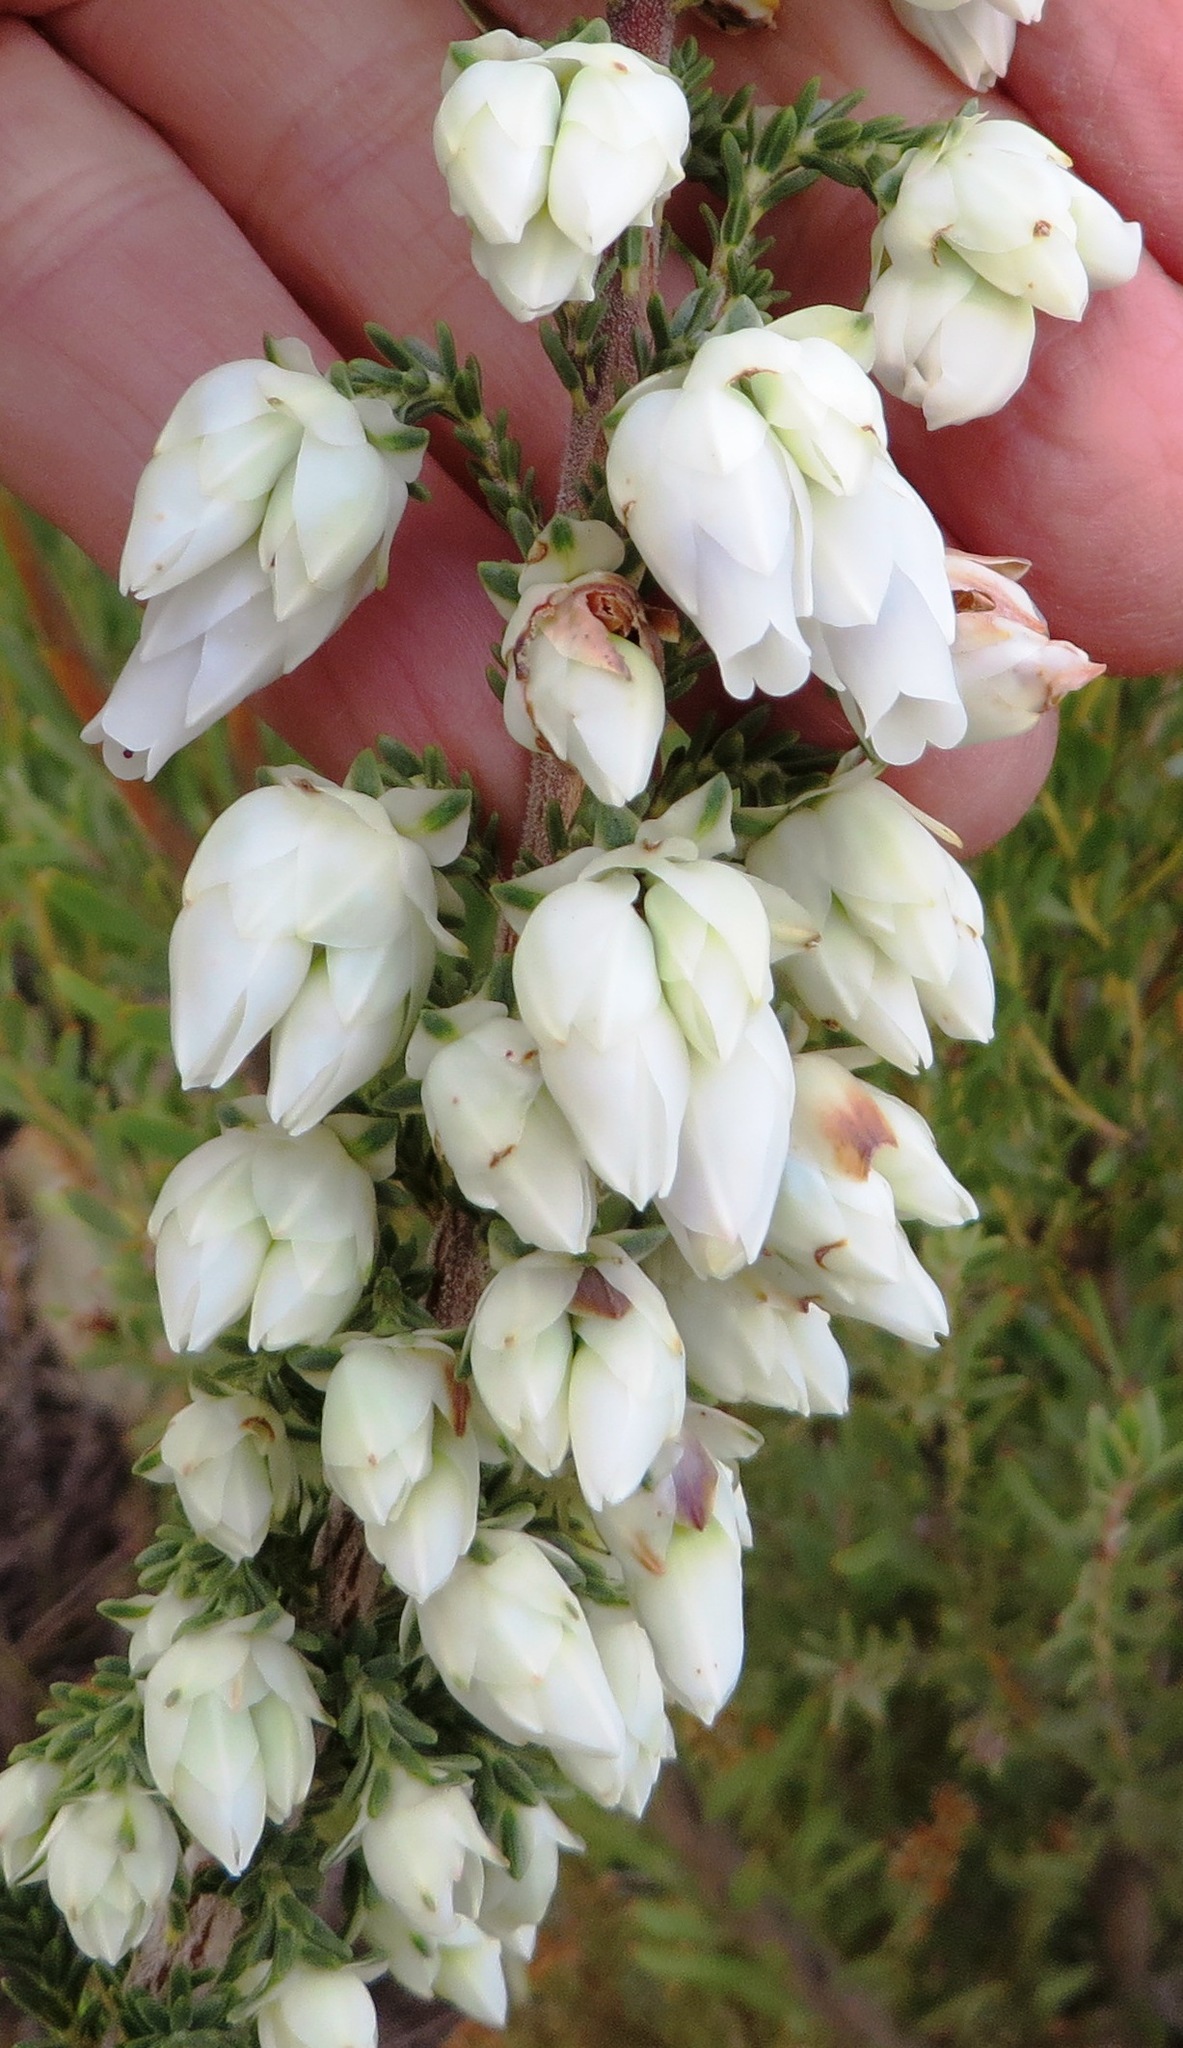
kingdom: Plantae
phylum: Tracheophyta
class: Magnoliopsida
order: Ericales
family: Ericaceae
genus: Erica
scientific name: Erica monsoniana
